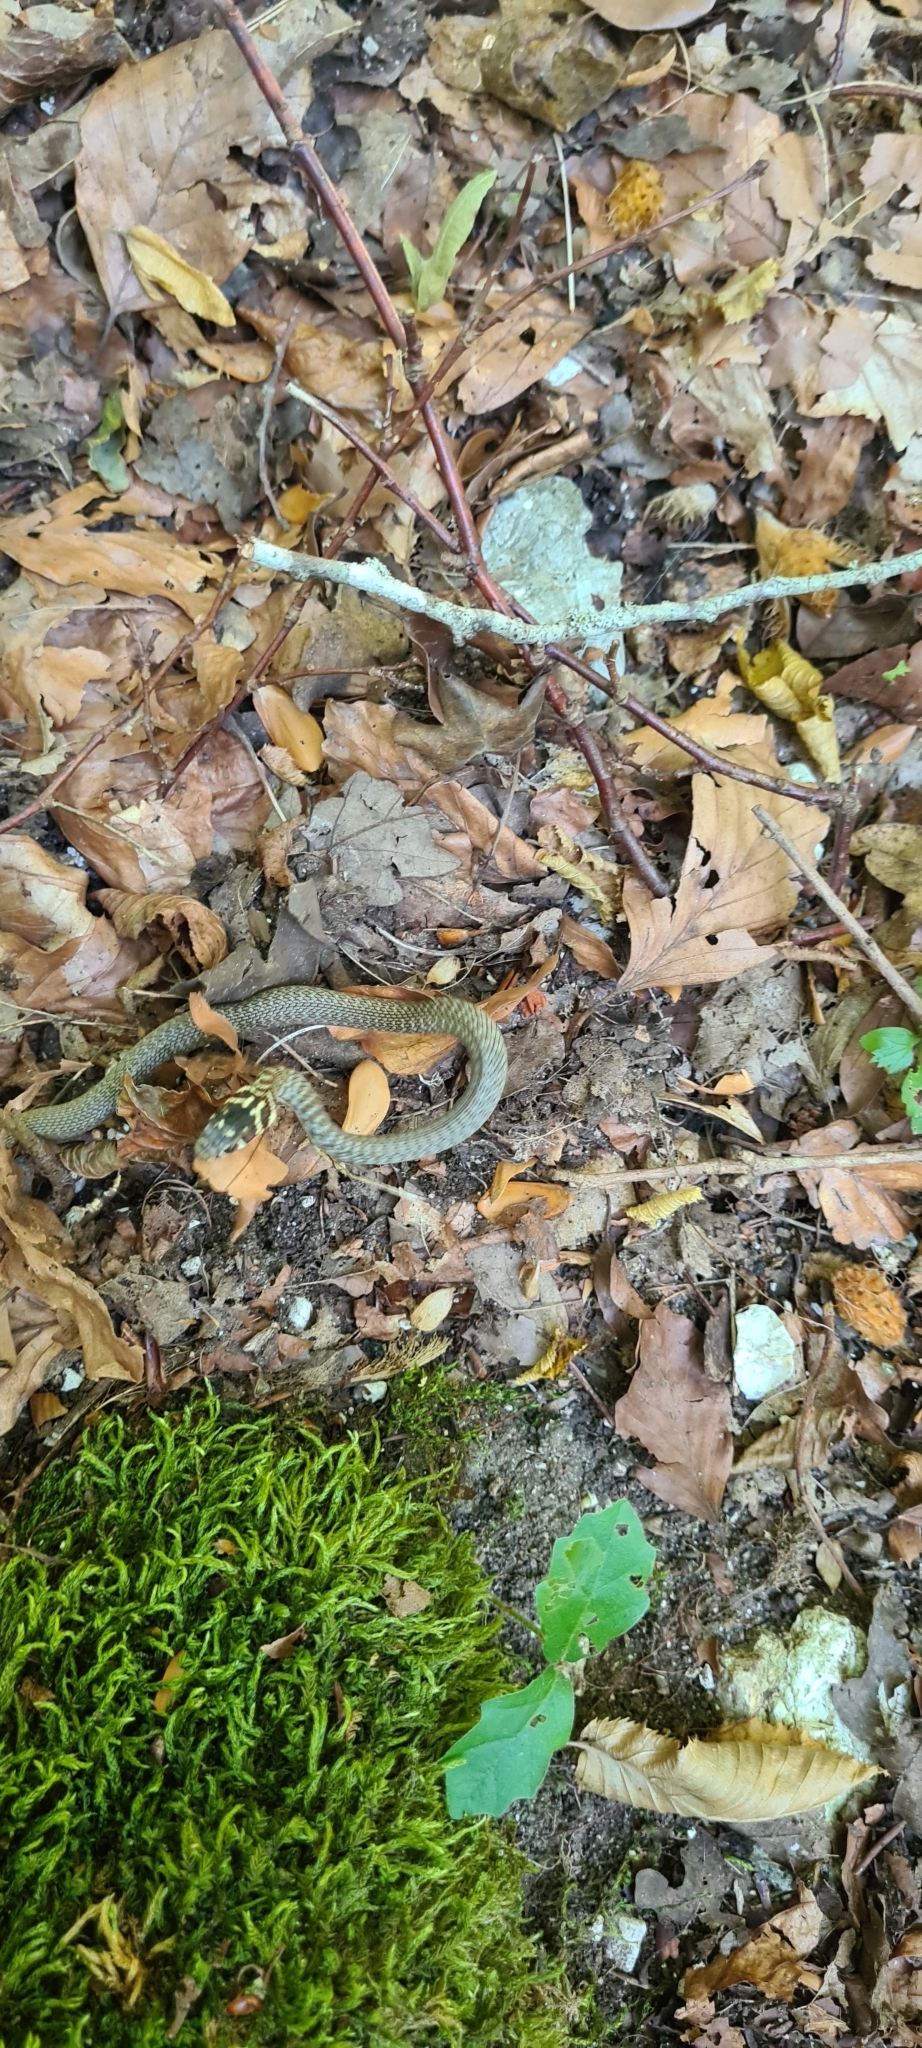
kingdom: Animalia
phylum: Chordata
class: Squamata
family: Colubridae
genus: Hierophis
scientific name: Hierophis viridiflavus
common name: Green whip snake
